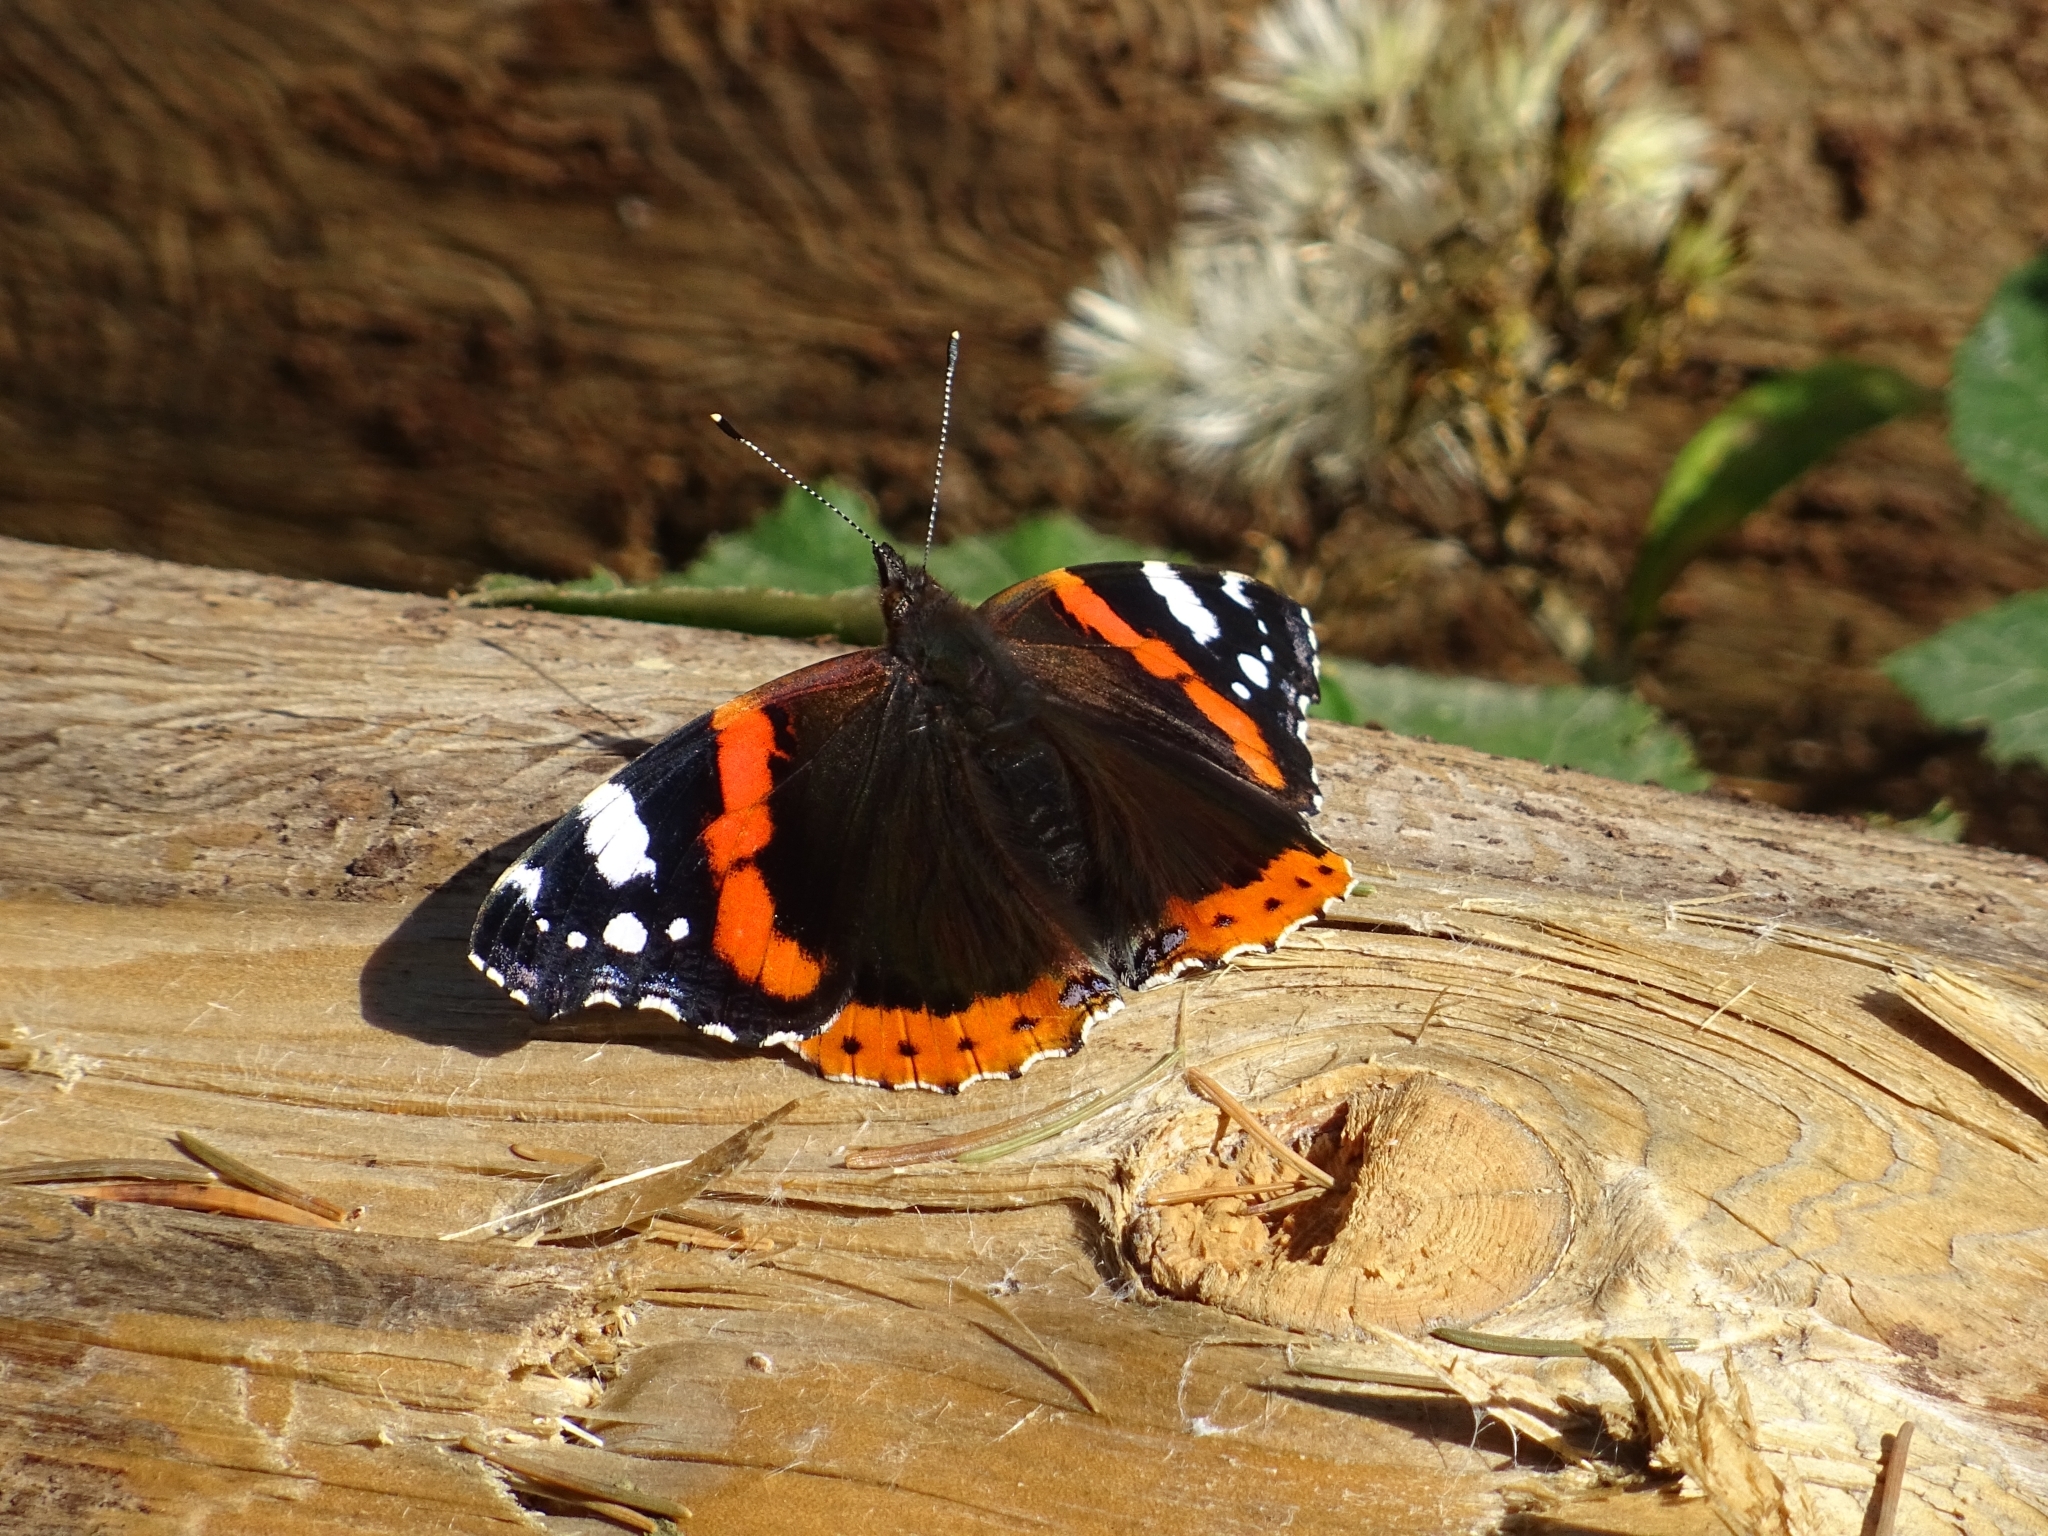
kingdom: Animalia
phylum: Arthropoda
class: Insecta
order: Lepidoptera
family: Nymphalidae
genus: Vanessa
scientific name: Vanessa atalanta
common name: Red admiral
